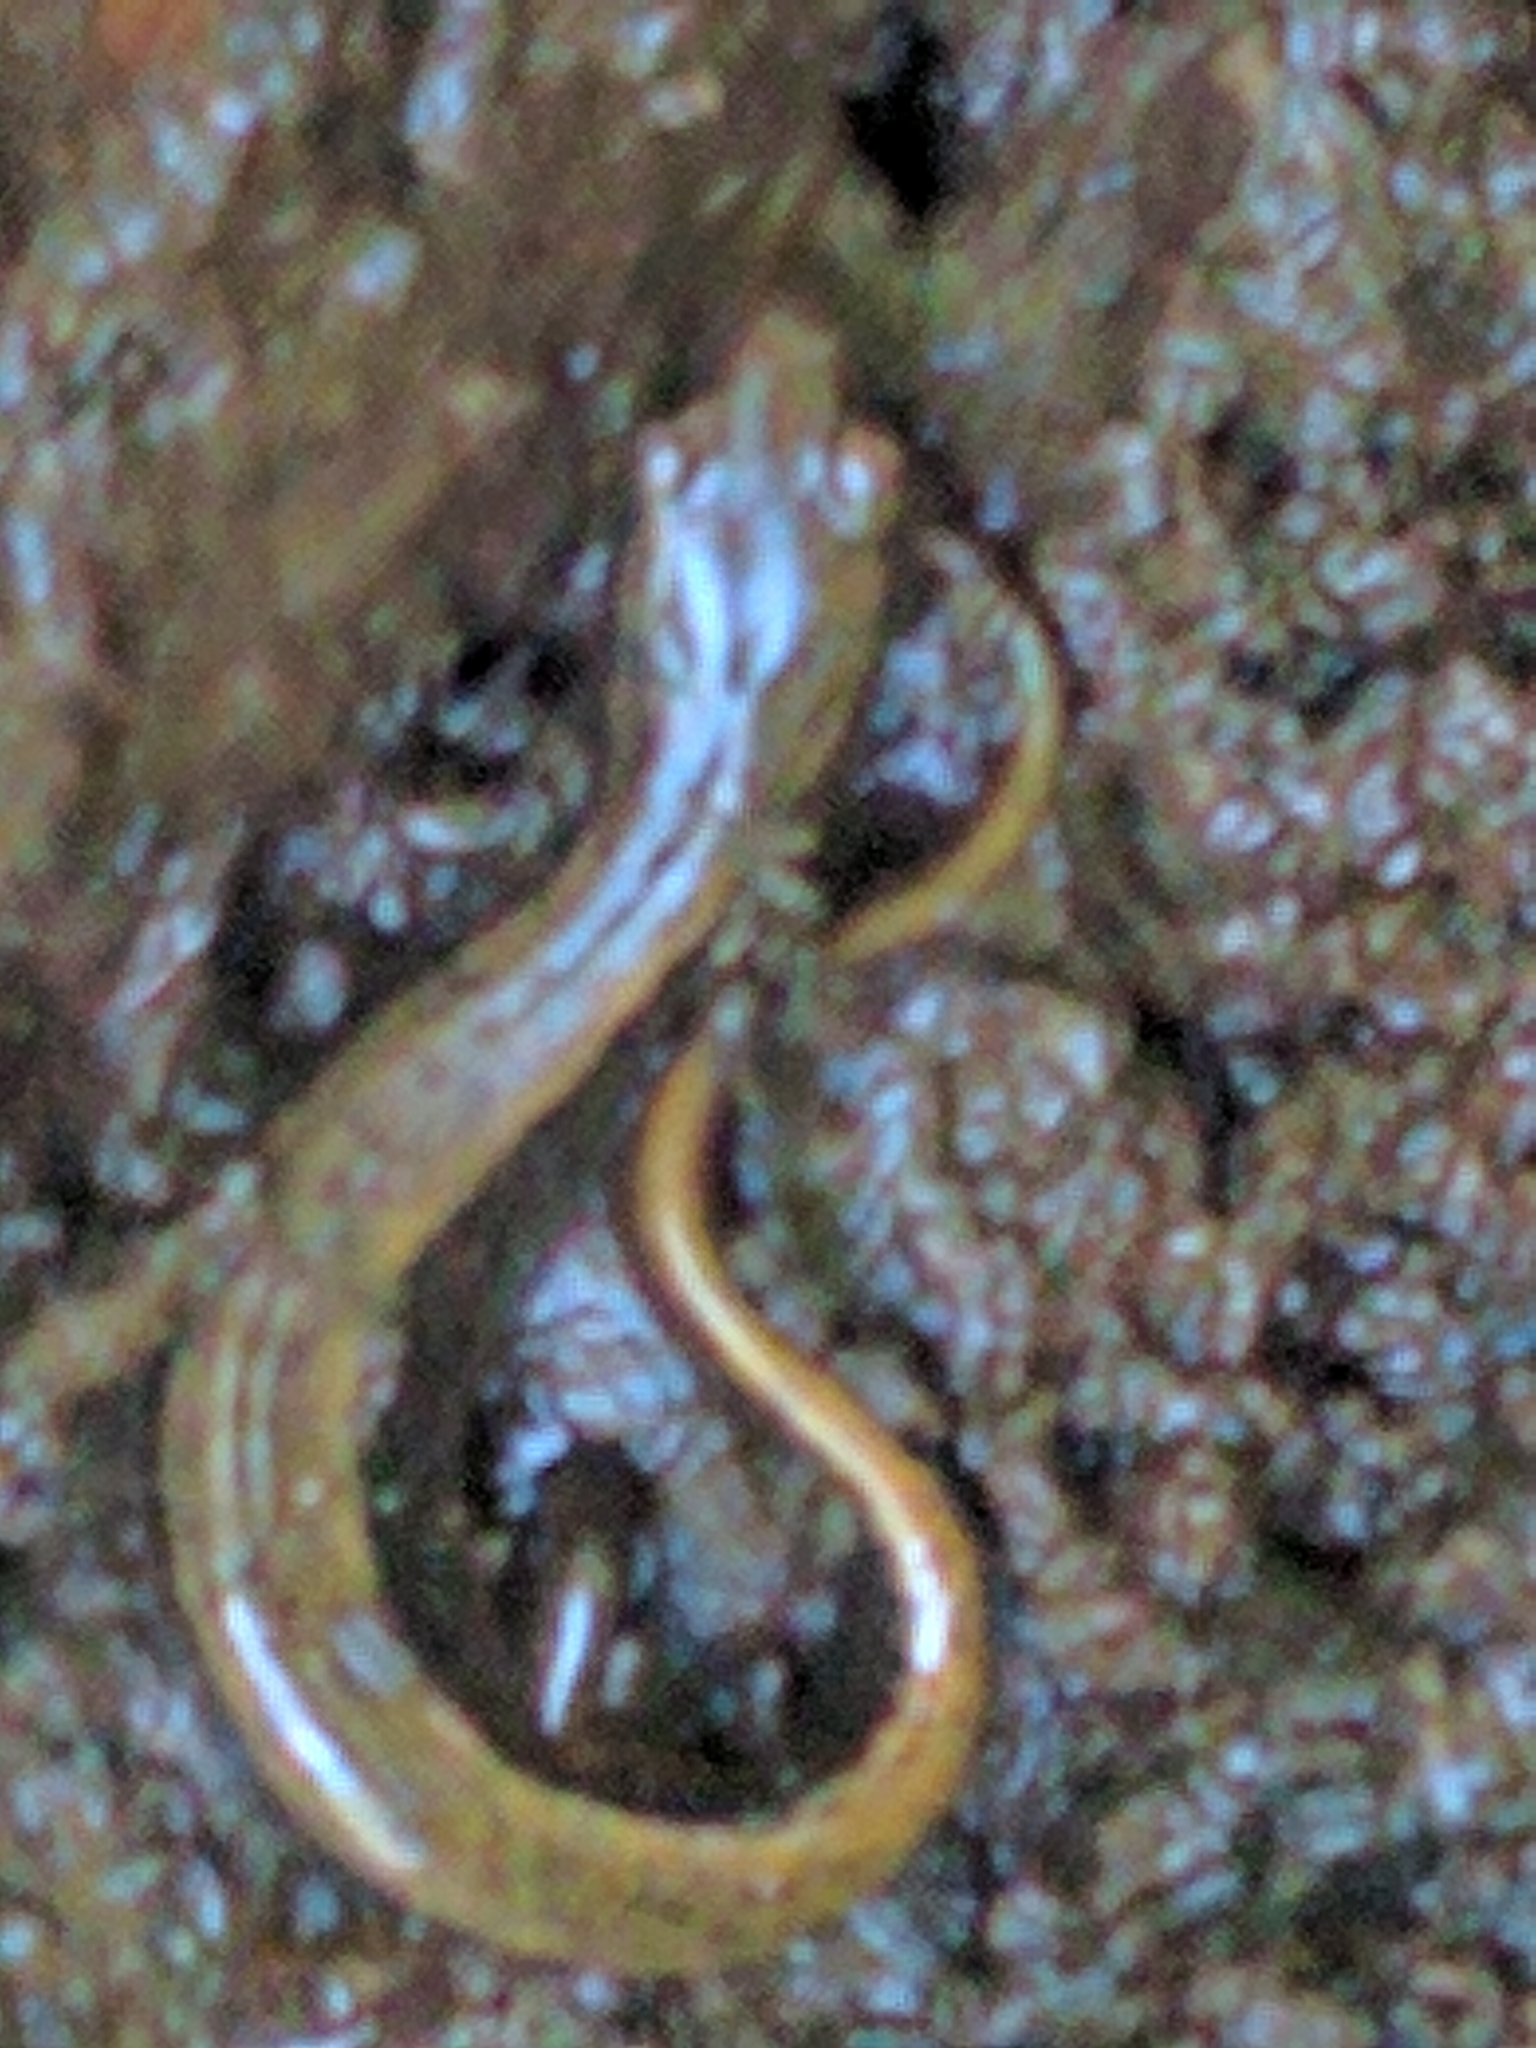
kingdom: Animalia
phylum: Chordata
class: Amphibia
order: Caudata
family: Plethodontidae
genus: Eurycea
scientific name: Eurycea bislineata
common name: Northern two-lined salamander
